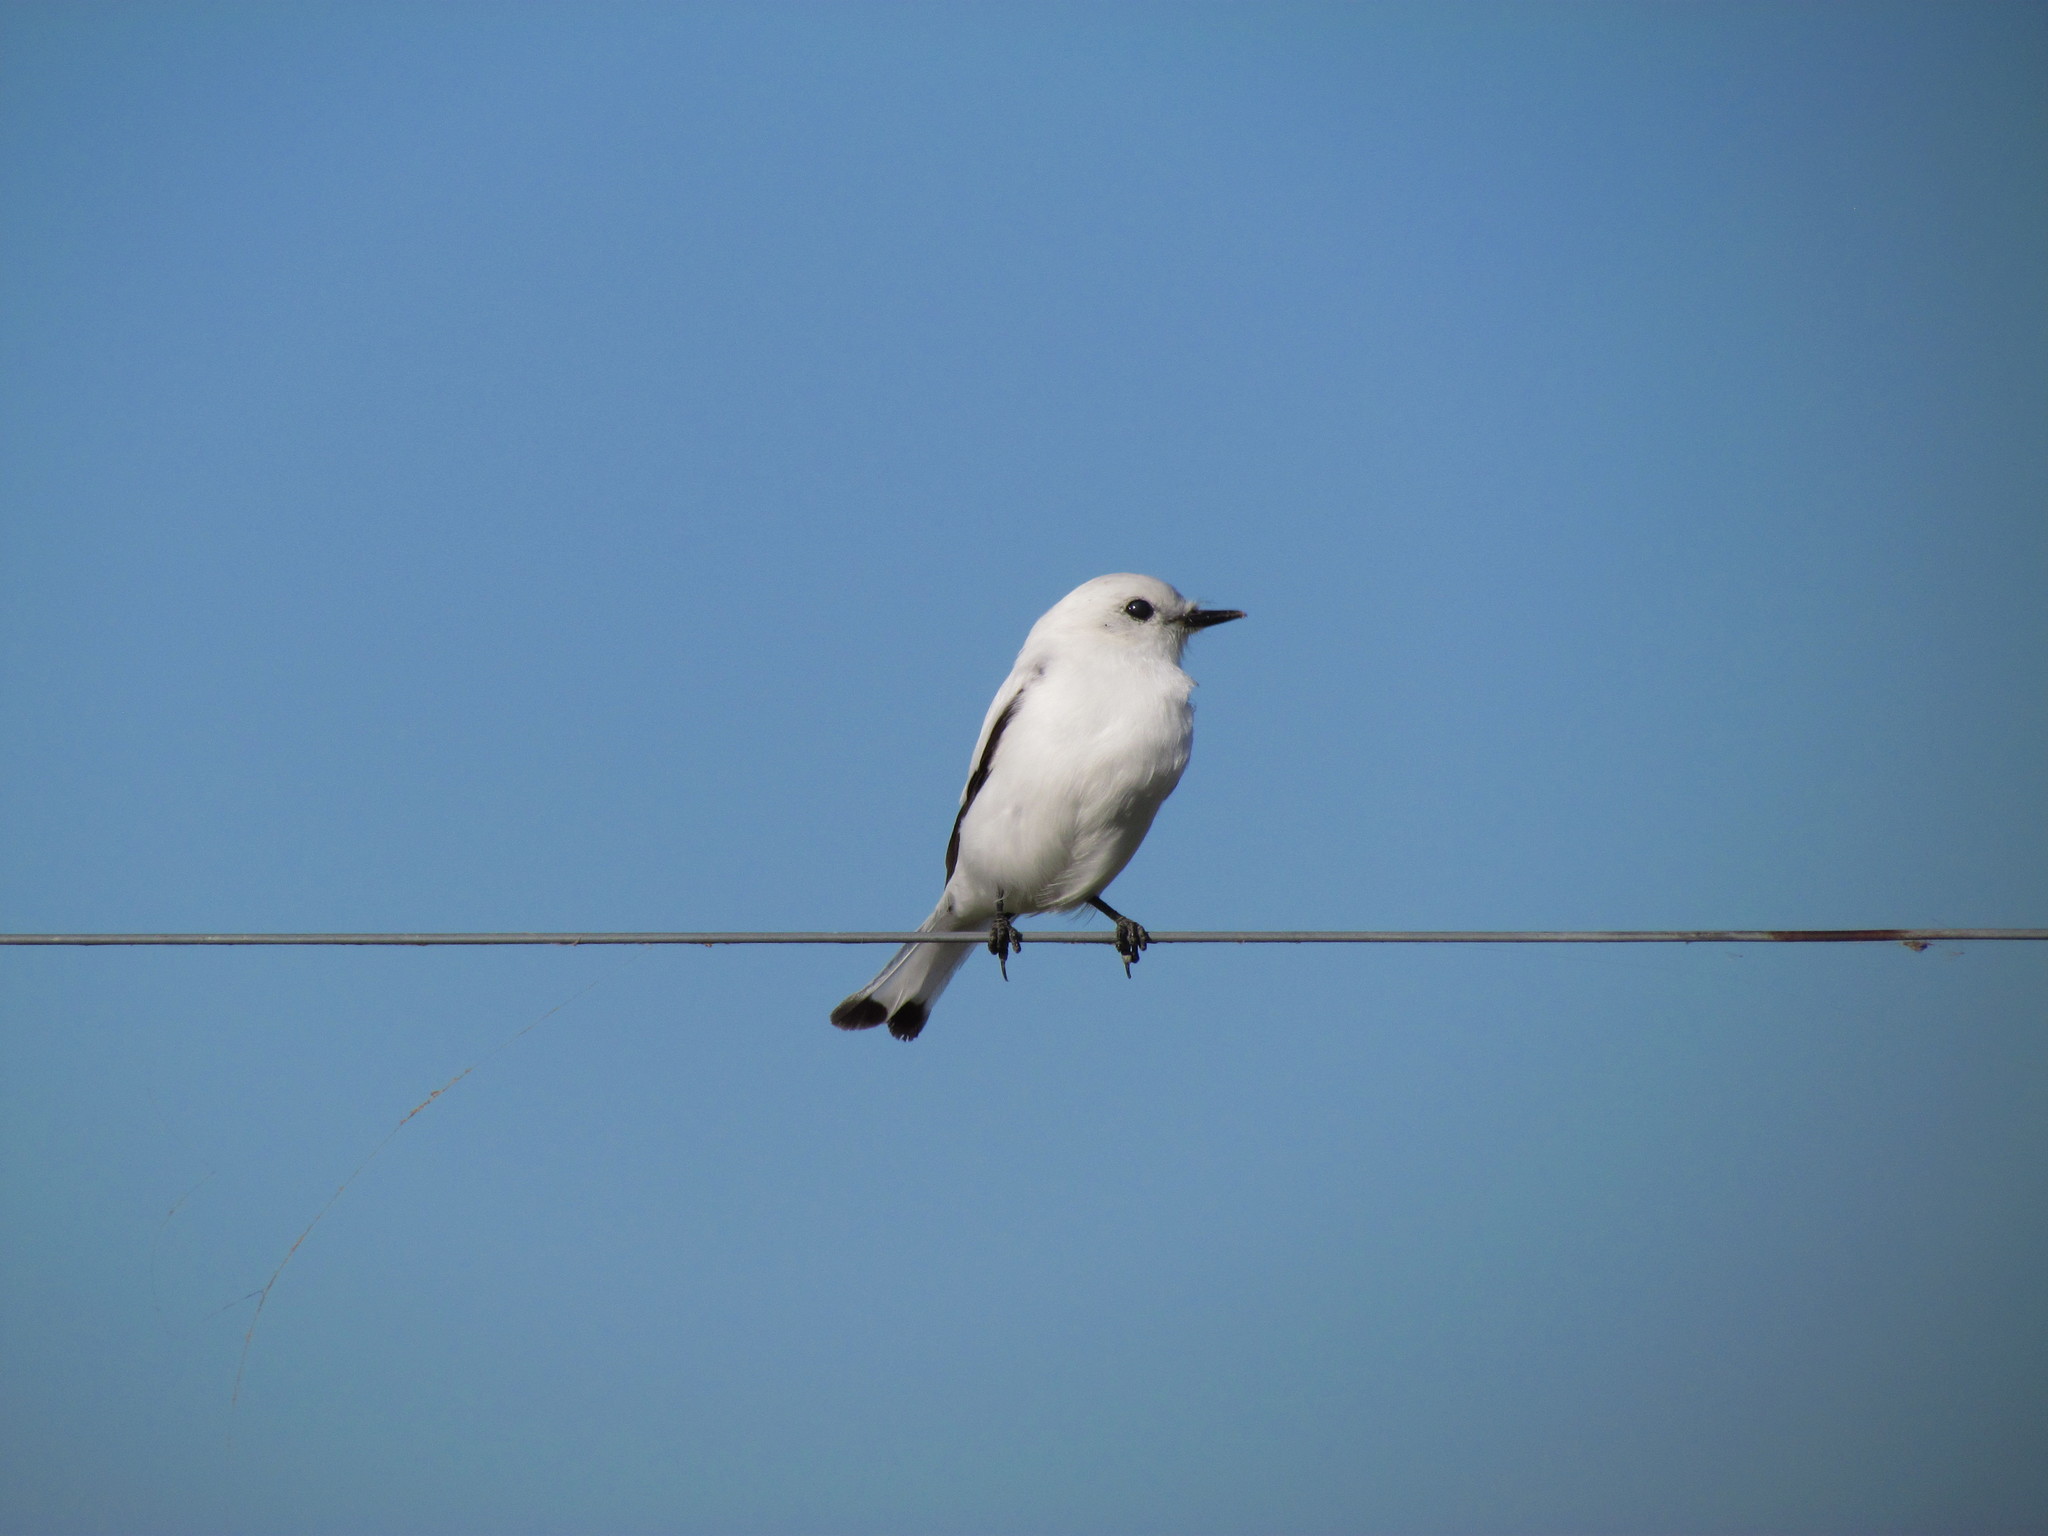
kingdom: Animalia
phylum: Chordata
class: Aves
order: Passeriformes
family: Tyrannidae
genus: Xolmis
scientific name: Xolmis irupero
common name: White monjita
